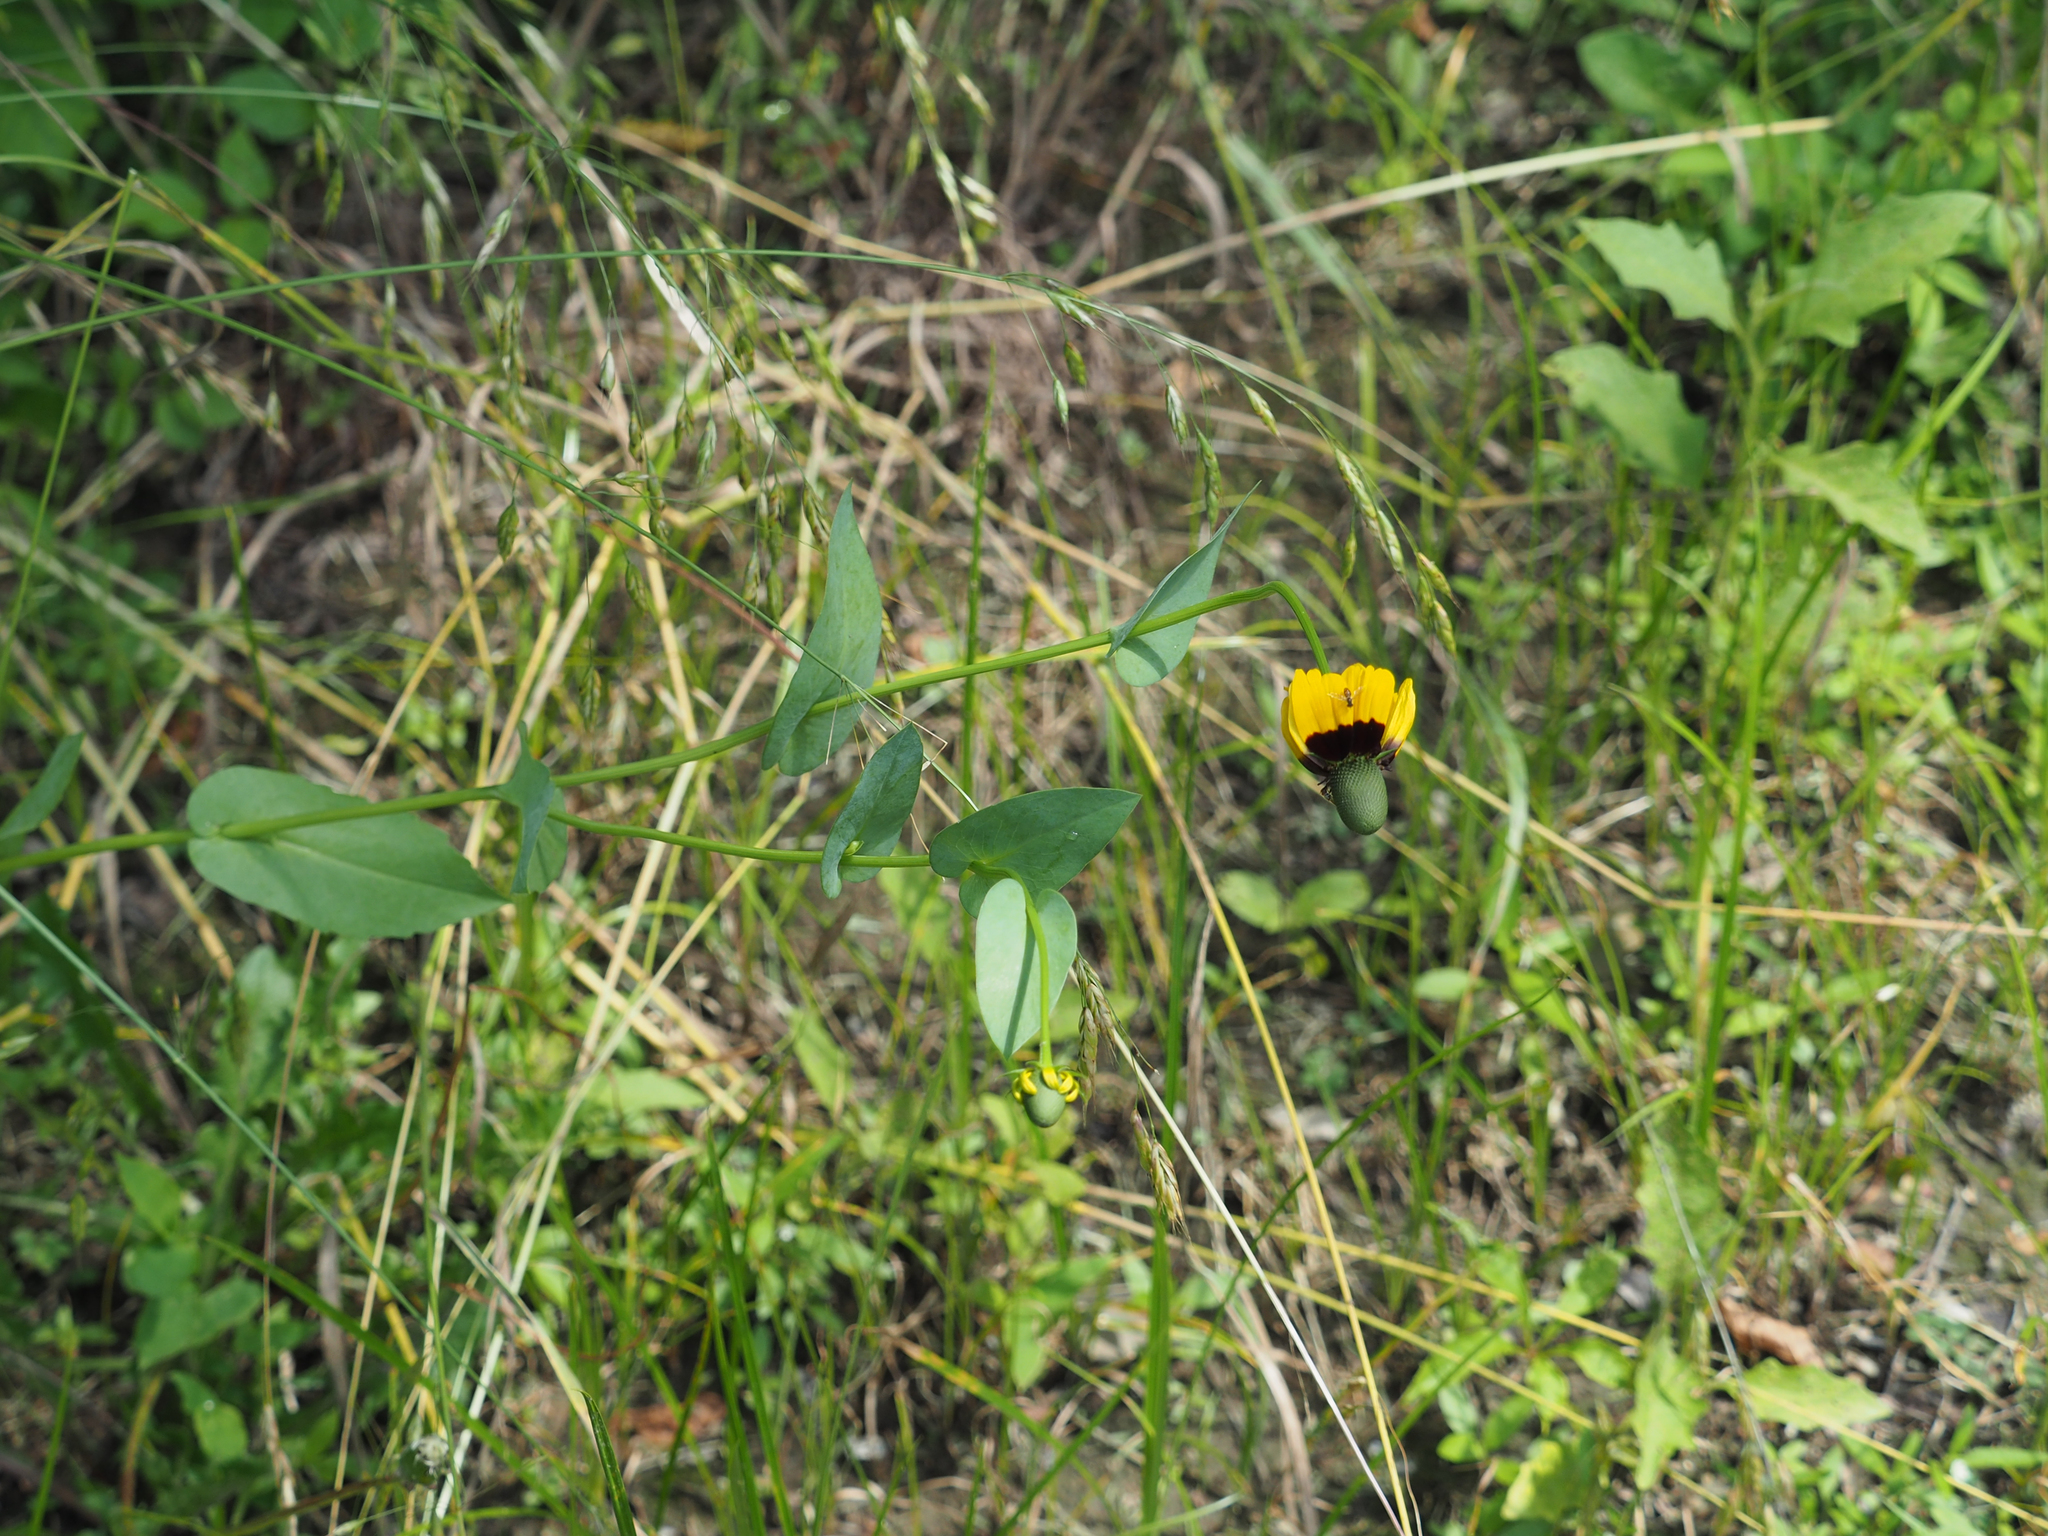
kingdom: Plantae
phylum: Tracheophyta
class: Magnoliopsida
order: Asterales
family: Asteraceae
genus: Rudbeckia
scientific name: Rudbeckia amplexicaulis
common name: Clasping-leaf coneflower
